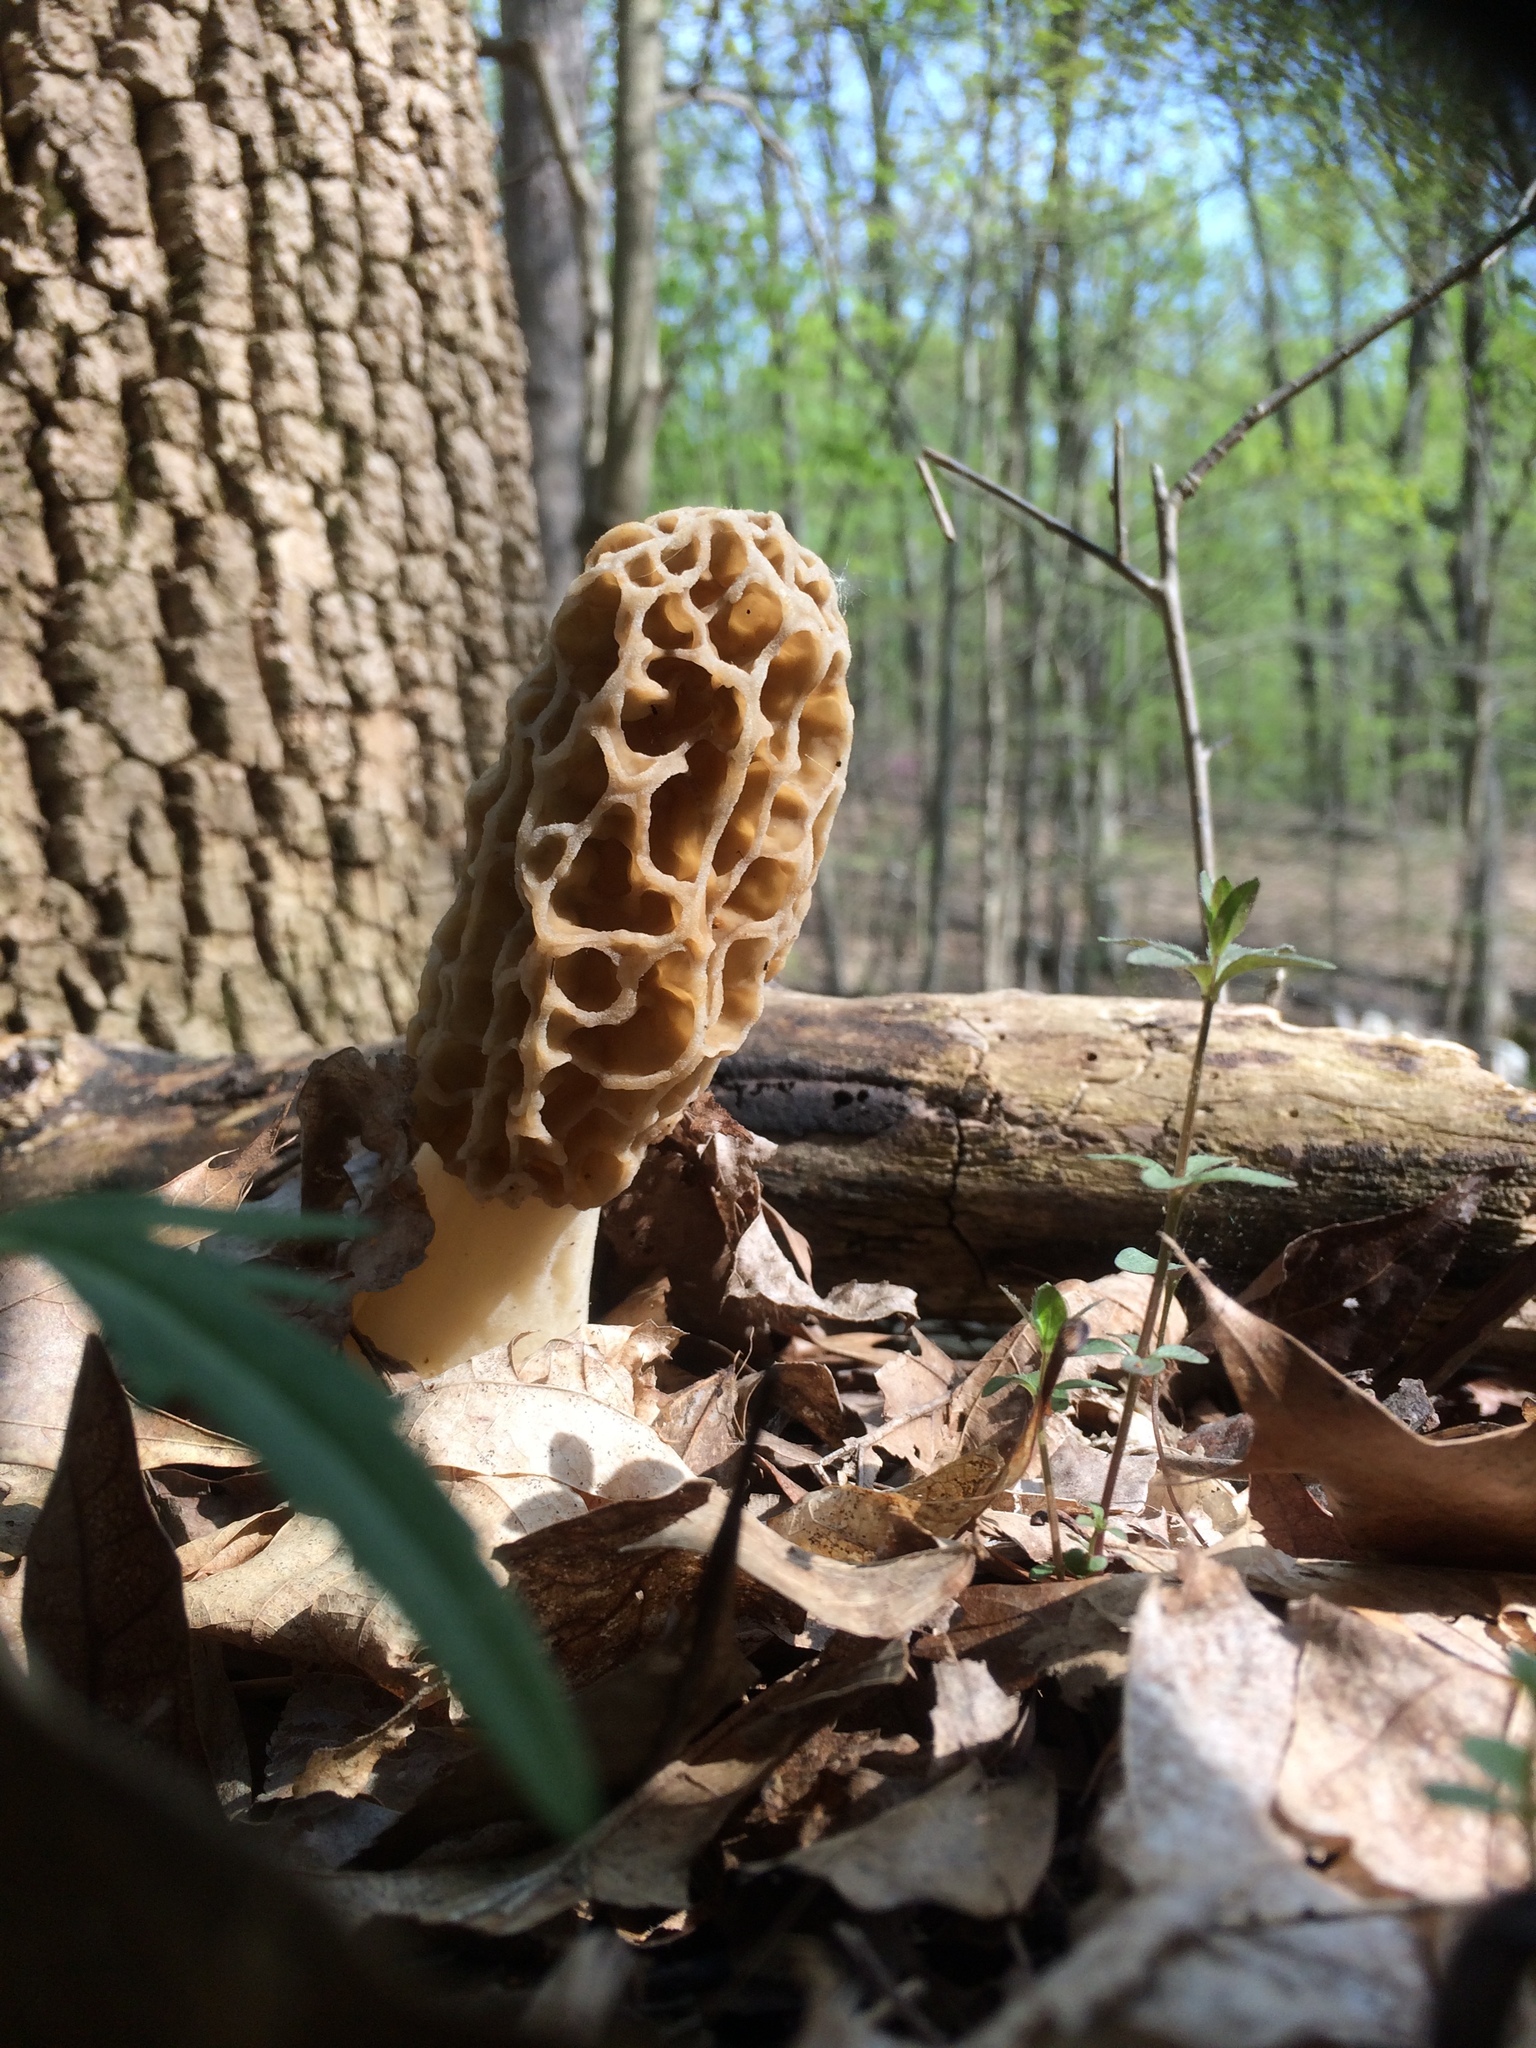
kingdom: Fungi
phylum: Ascomycota
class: Pezizomycetes
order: Pezizales
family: Morchellaceae
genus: Morchella
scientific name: Morchella americana
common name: White morel
